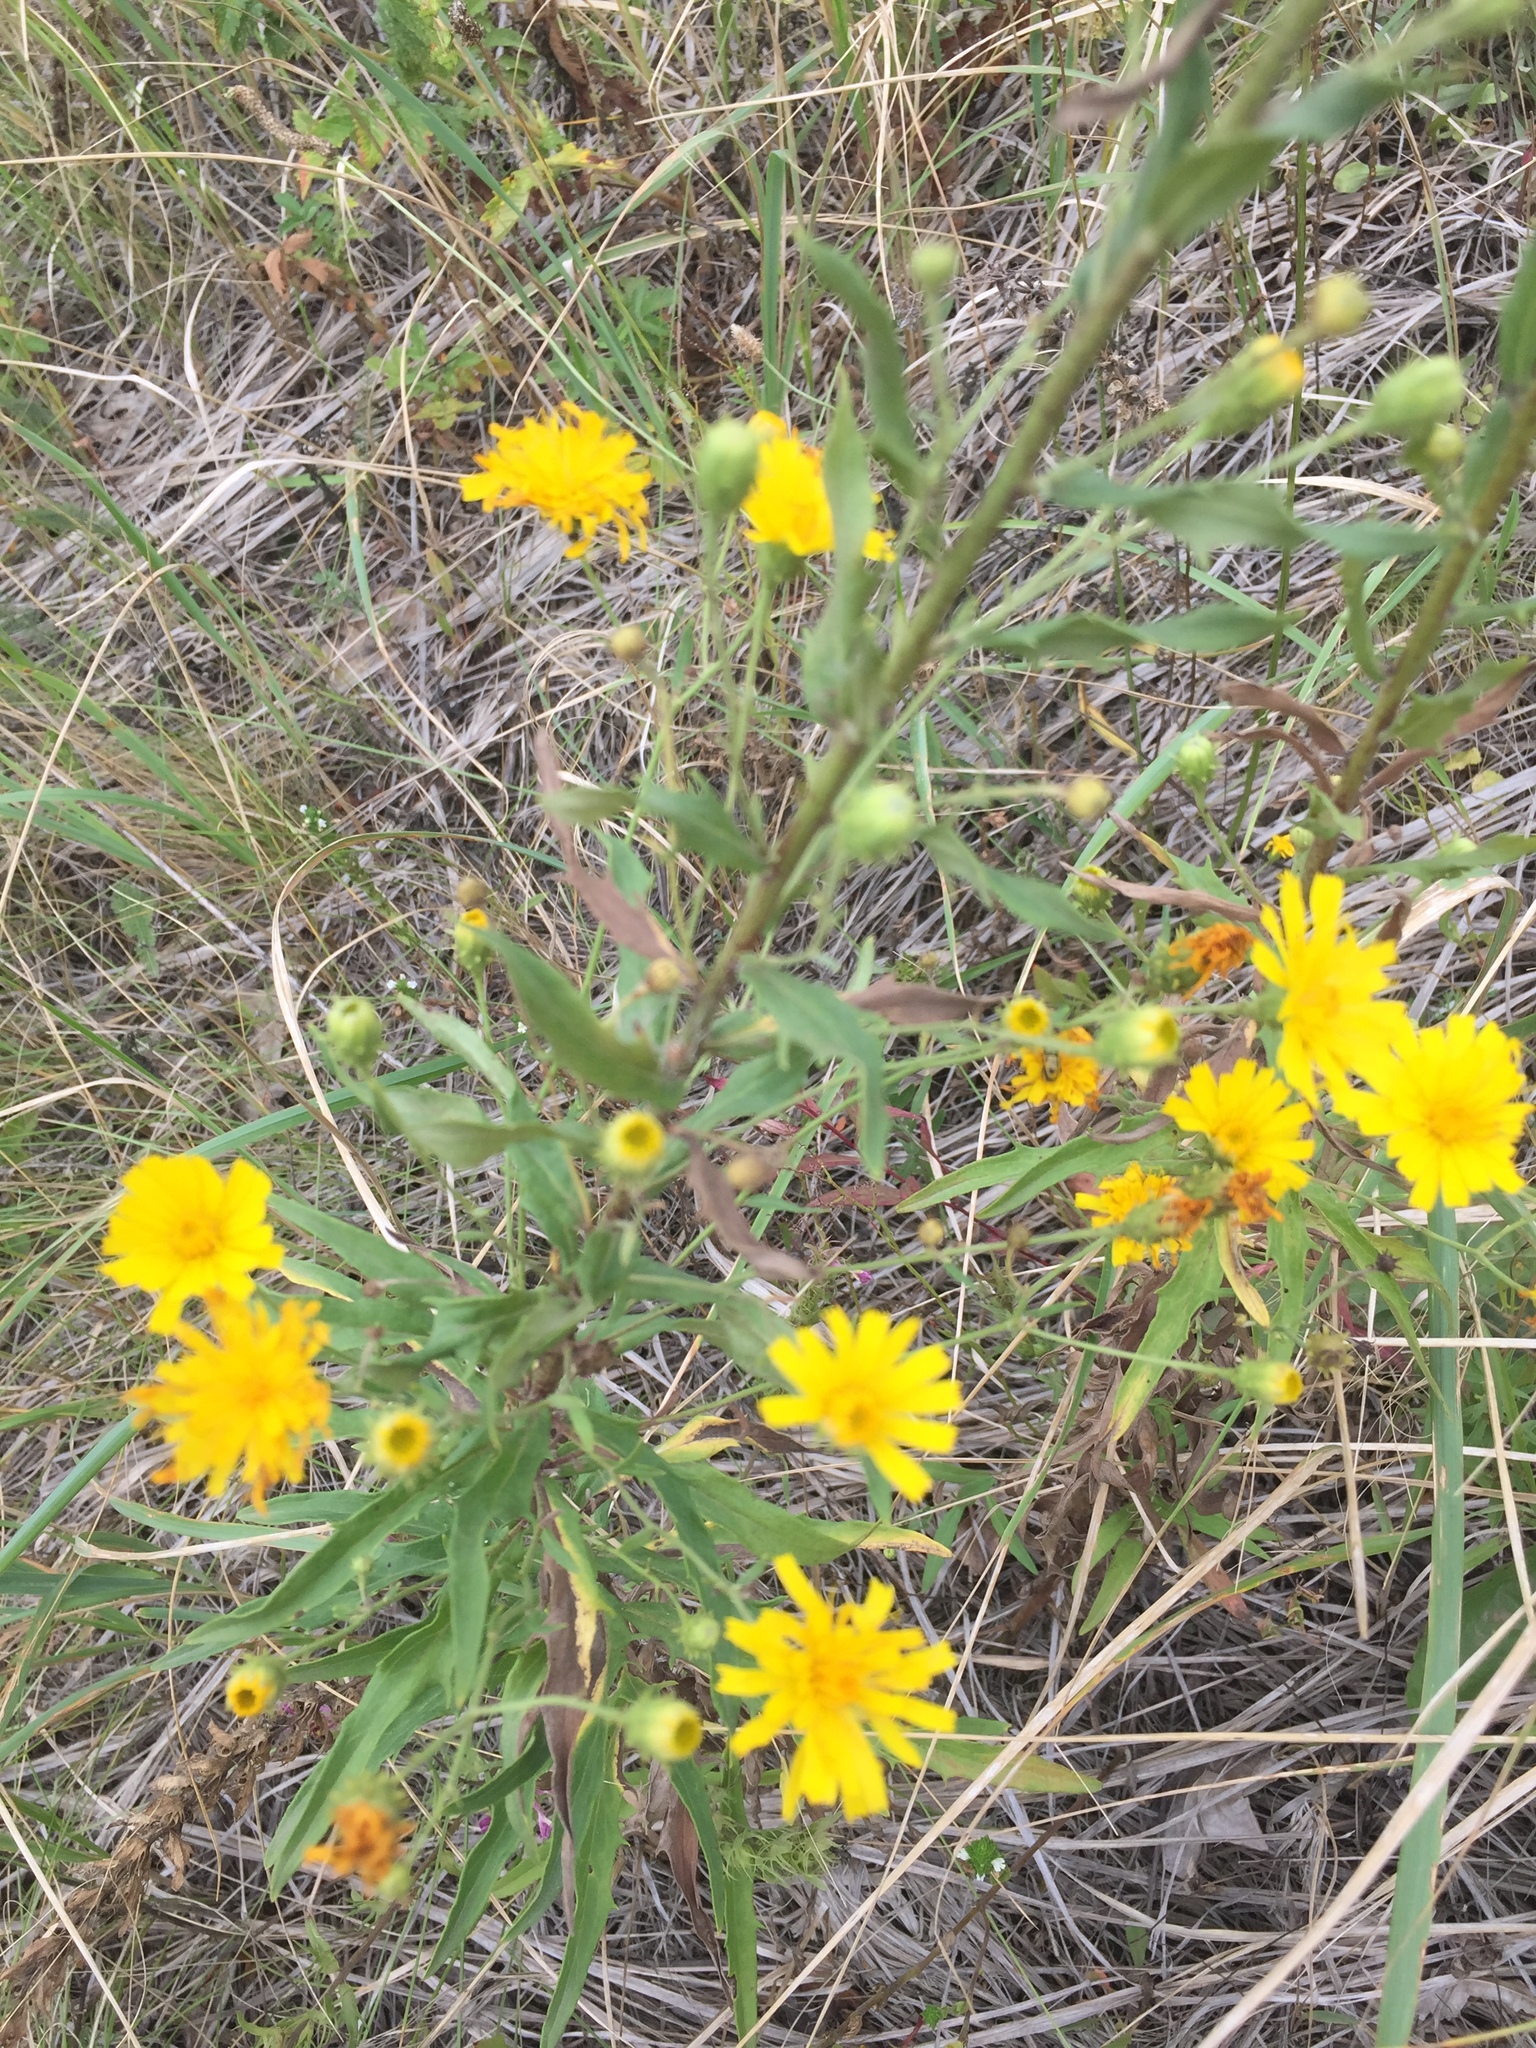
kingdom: Plantae
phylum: Tracheophyta
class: Magnoliopsida
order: Asterales
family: Asteraceae
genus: Hieracium
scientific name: Hieracium umbellatum
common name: Northern hawkweed
